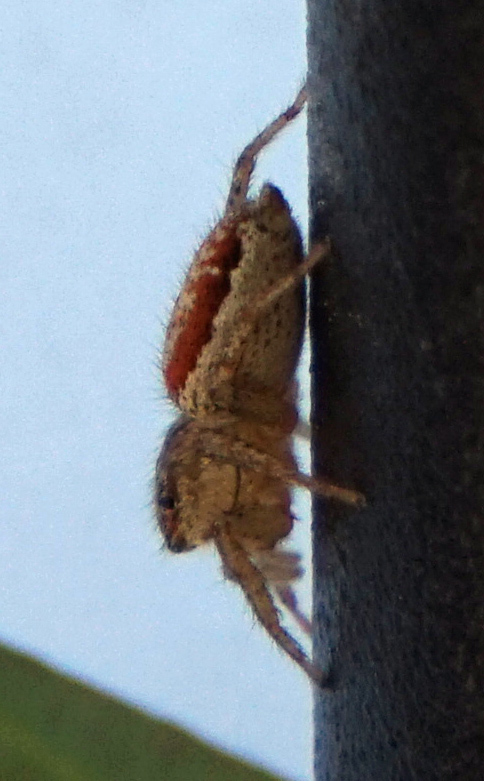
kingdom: Animalia
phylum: Arthropoda
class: Arachnida
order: Araneae
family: Salticidae
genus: Maevia
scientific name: Maevia inclemens
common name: Dimorphic jumper
